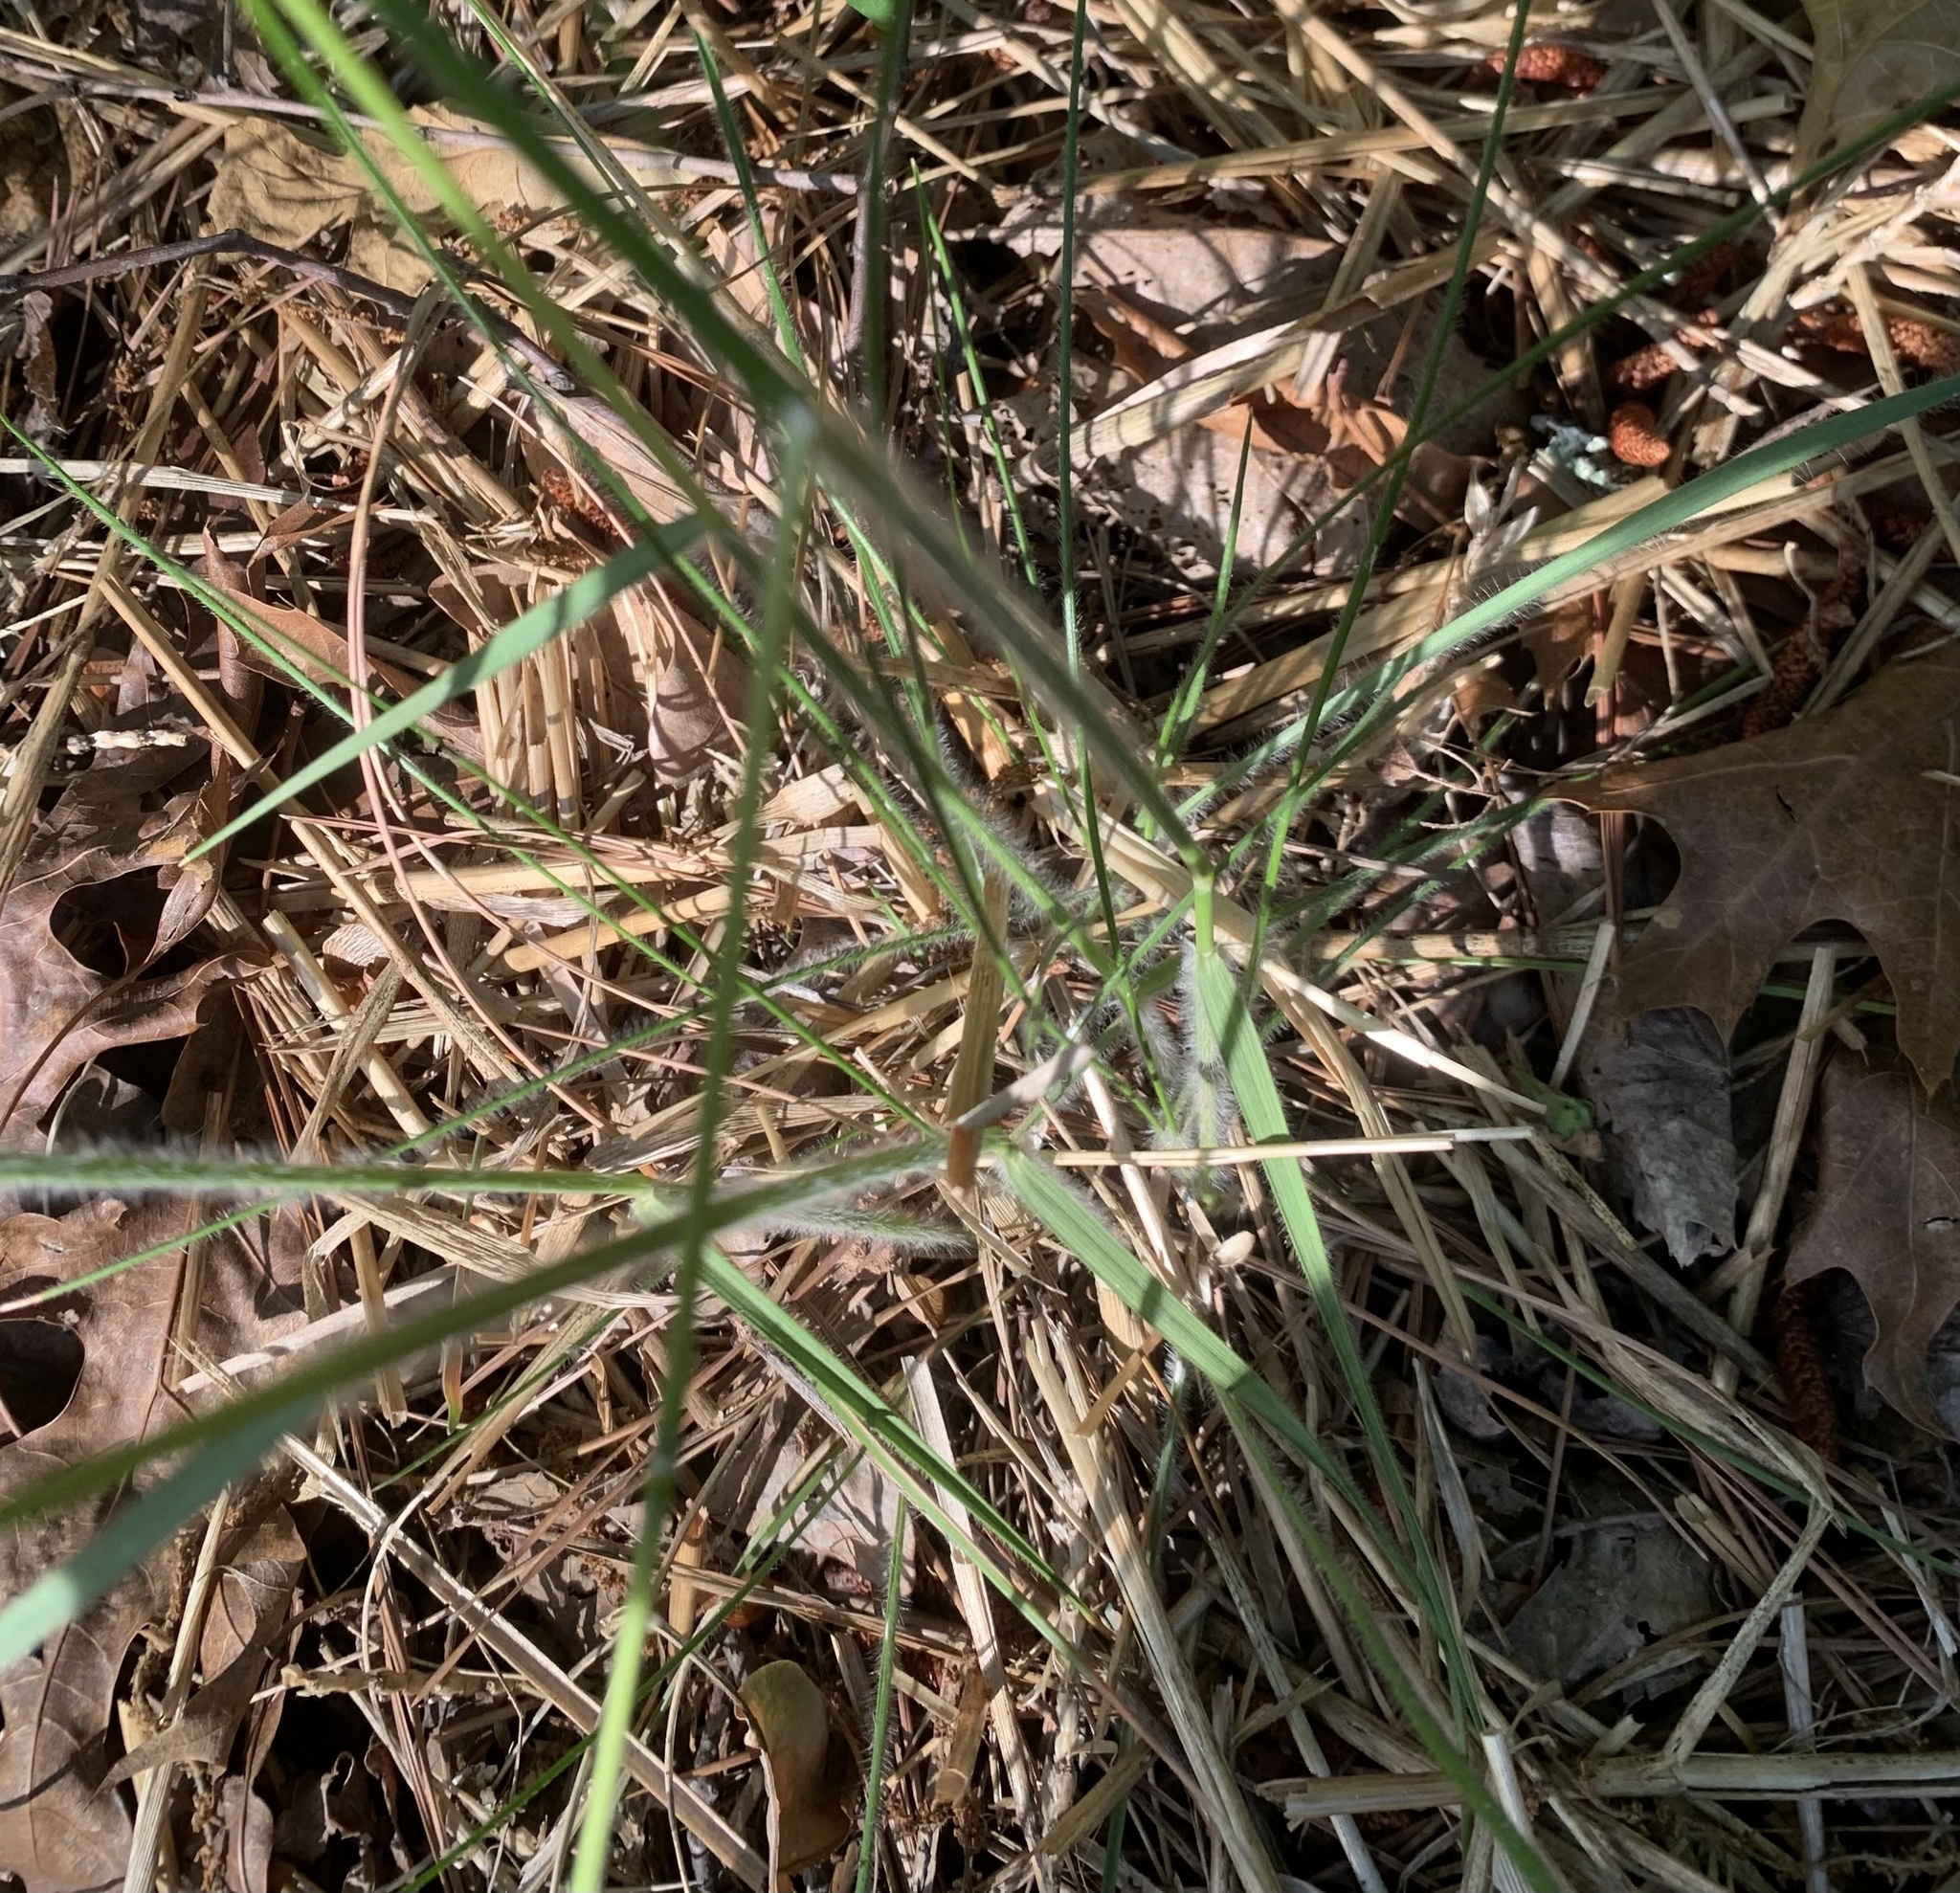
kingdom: Plantae
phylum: Tracheophyta
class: Liliopsida
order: Poales
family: Poaceae
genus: Danthonia
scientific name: Danthonia sericea
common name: Downy danthonia
